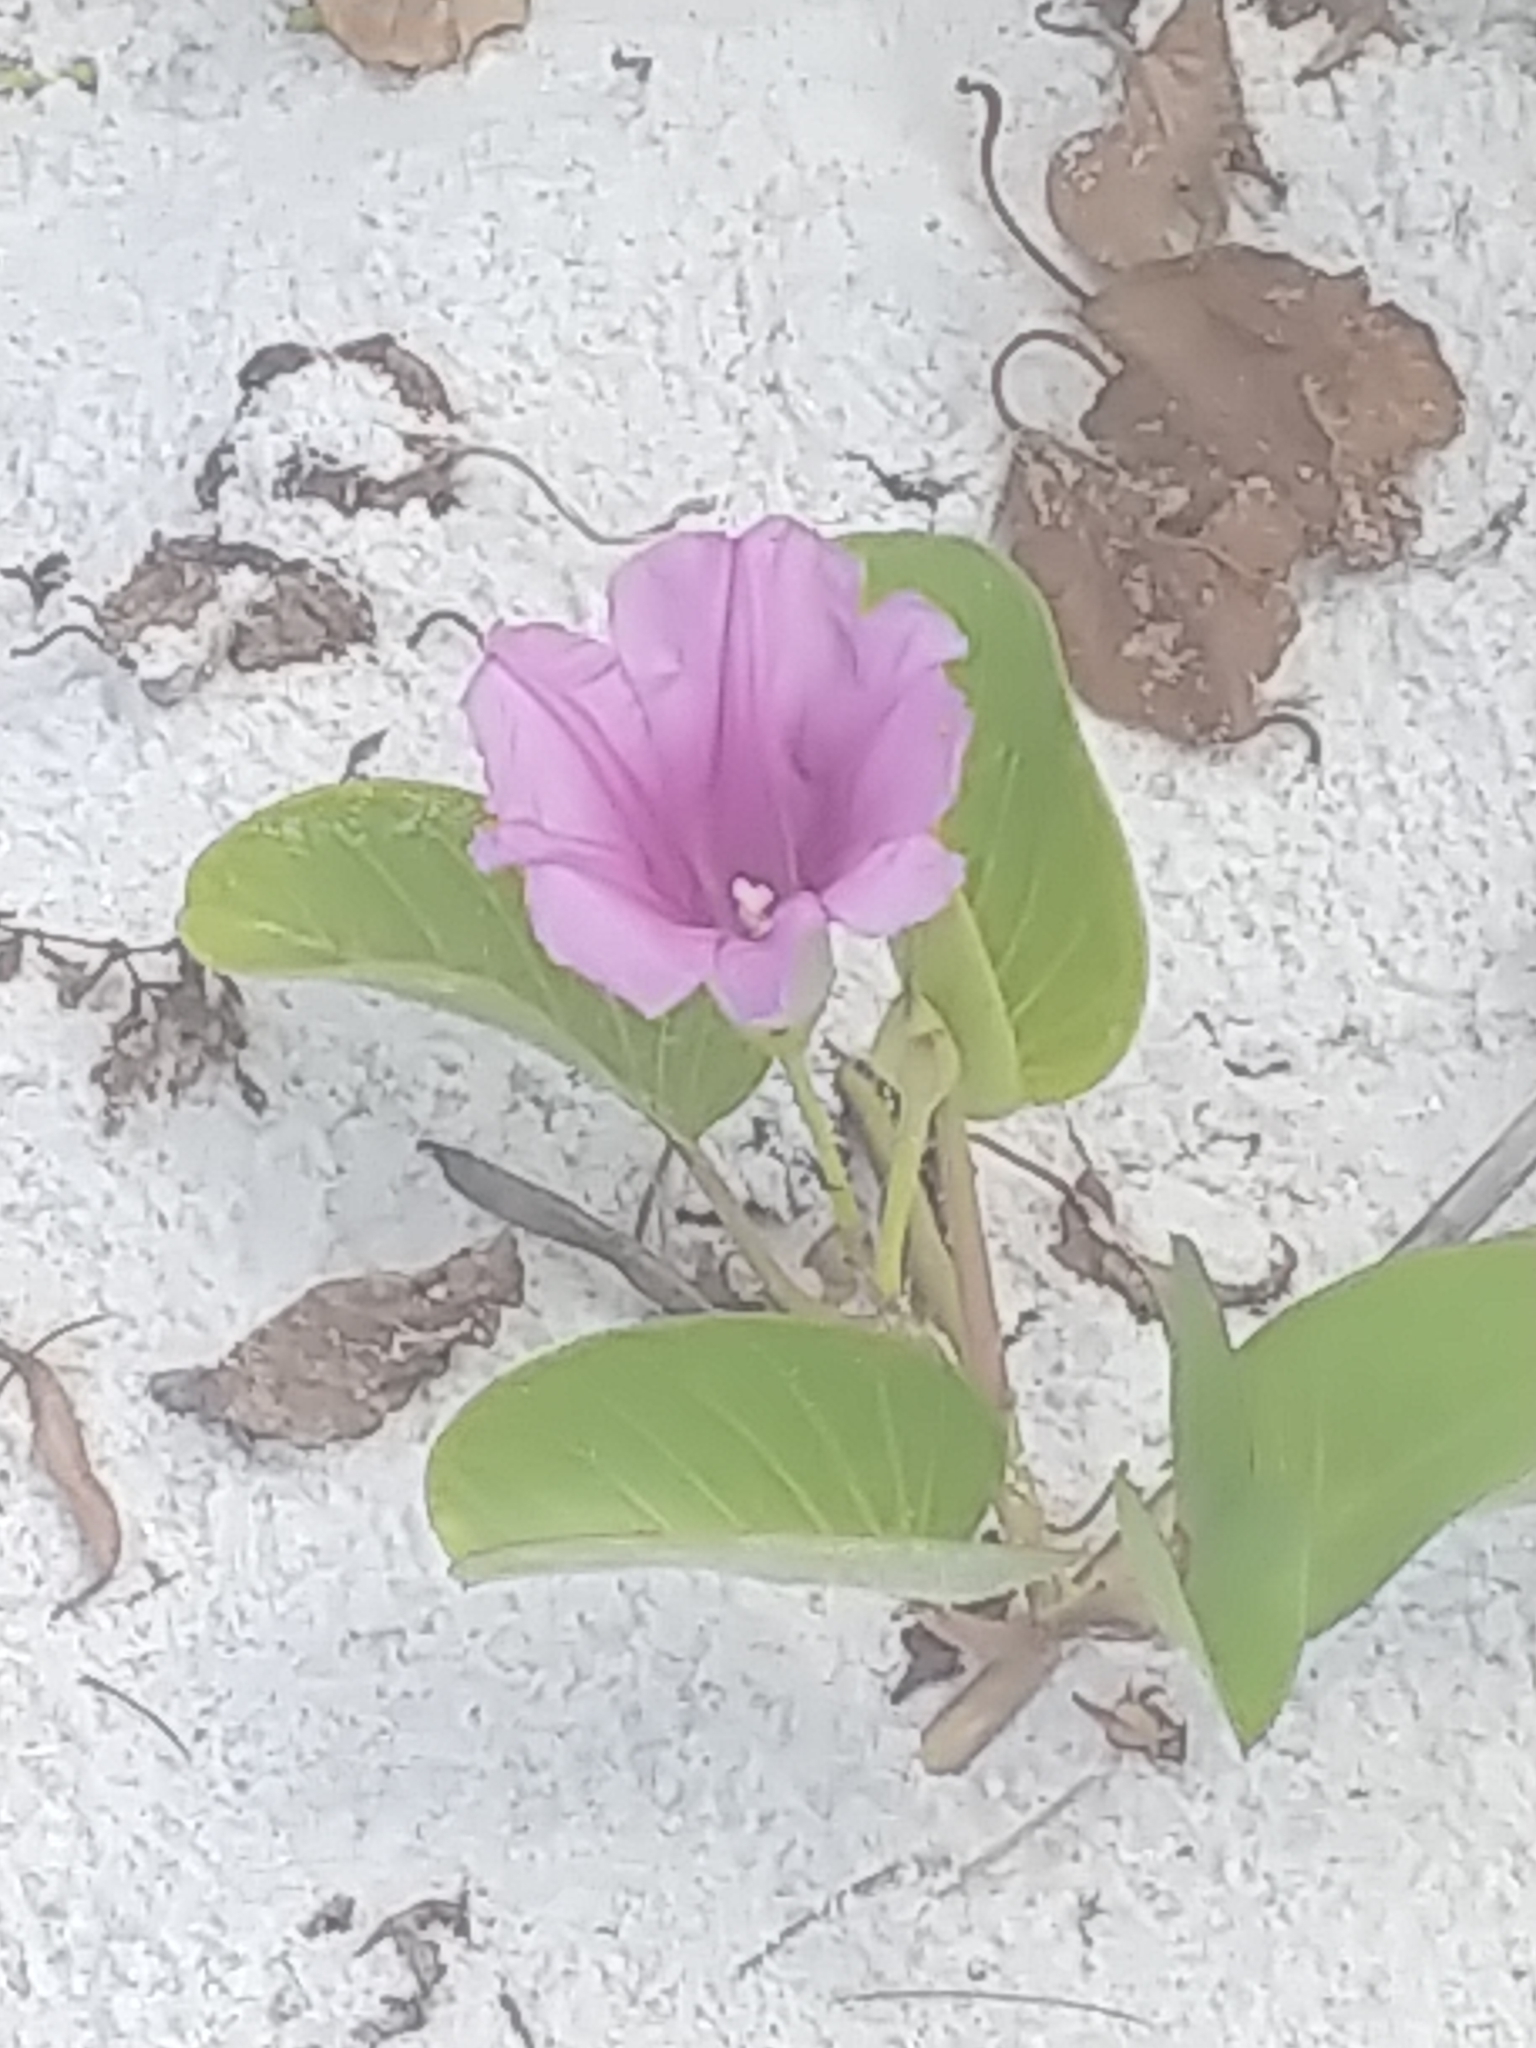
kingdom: Plantae
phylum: Tracheophyta
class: Magnoliopsida
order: Solanales
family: Convolvulaceae
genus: Ipomoea
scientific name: Ipomoea pes-caprae
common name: Beach morning glory
